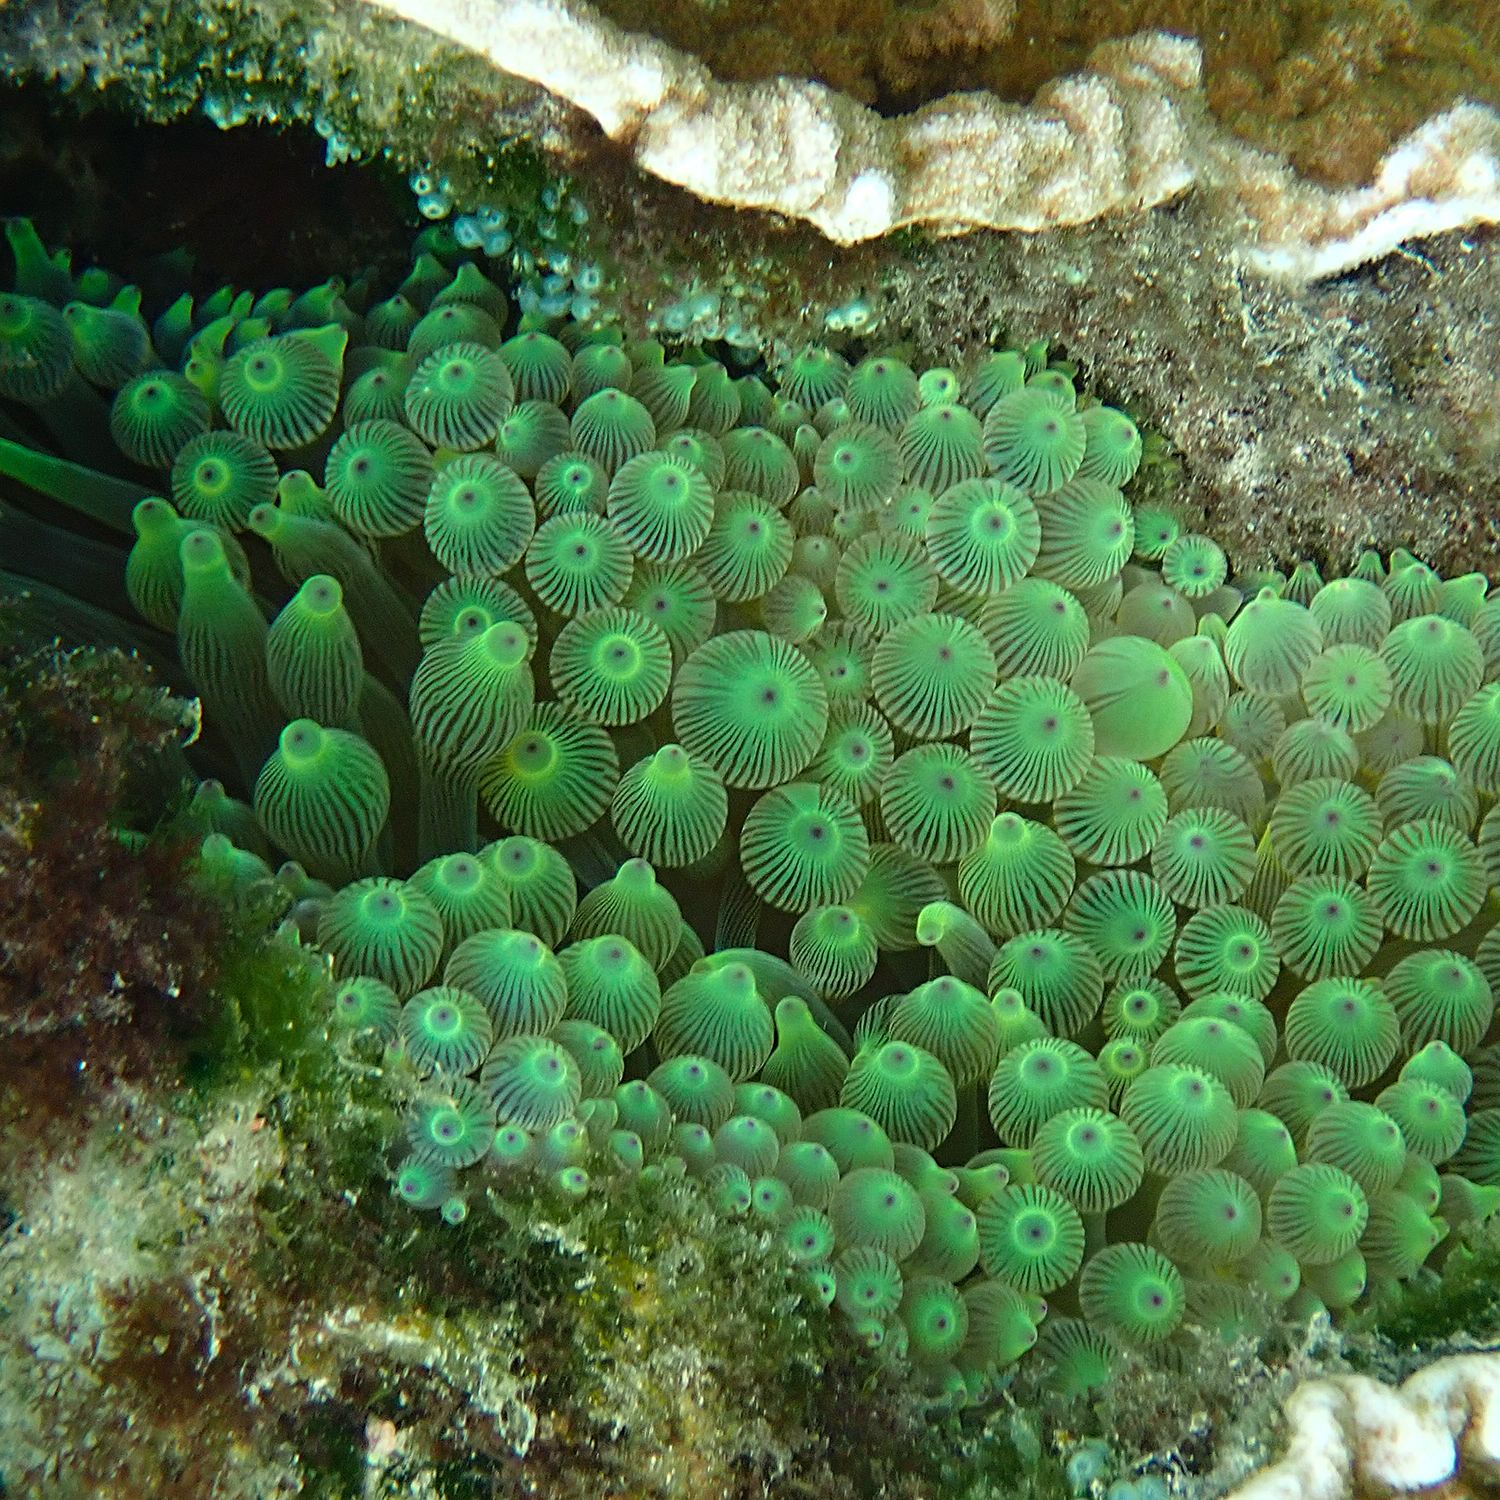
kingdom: Animalia
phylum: Cnidaria
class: Anthozoa
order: Actiniaria
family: Actiniidae
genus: Entacmaea
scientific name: Entacmaea quadricolor
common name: Bulb tentacle sea anemone
